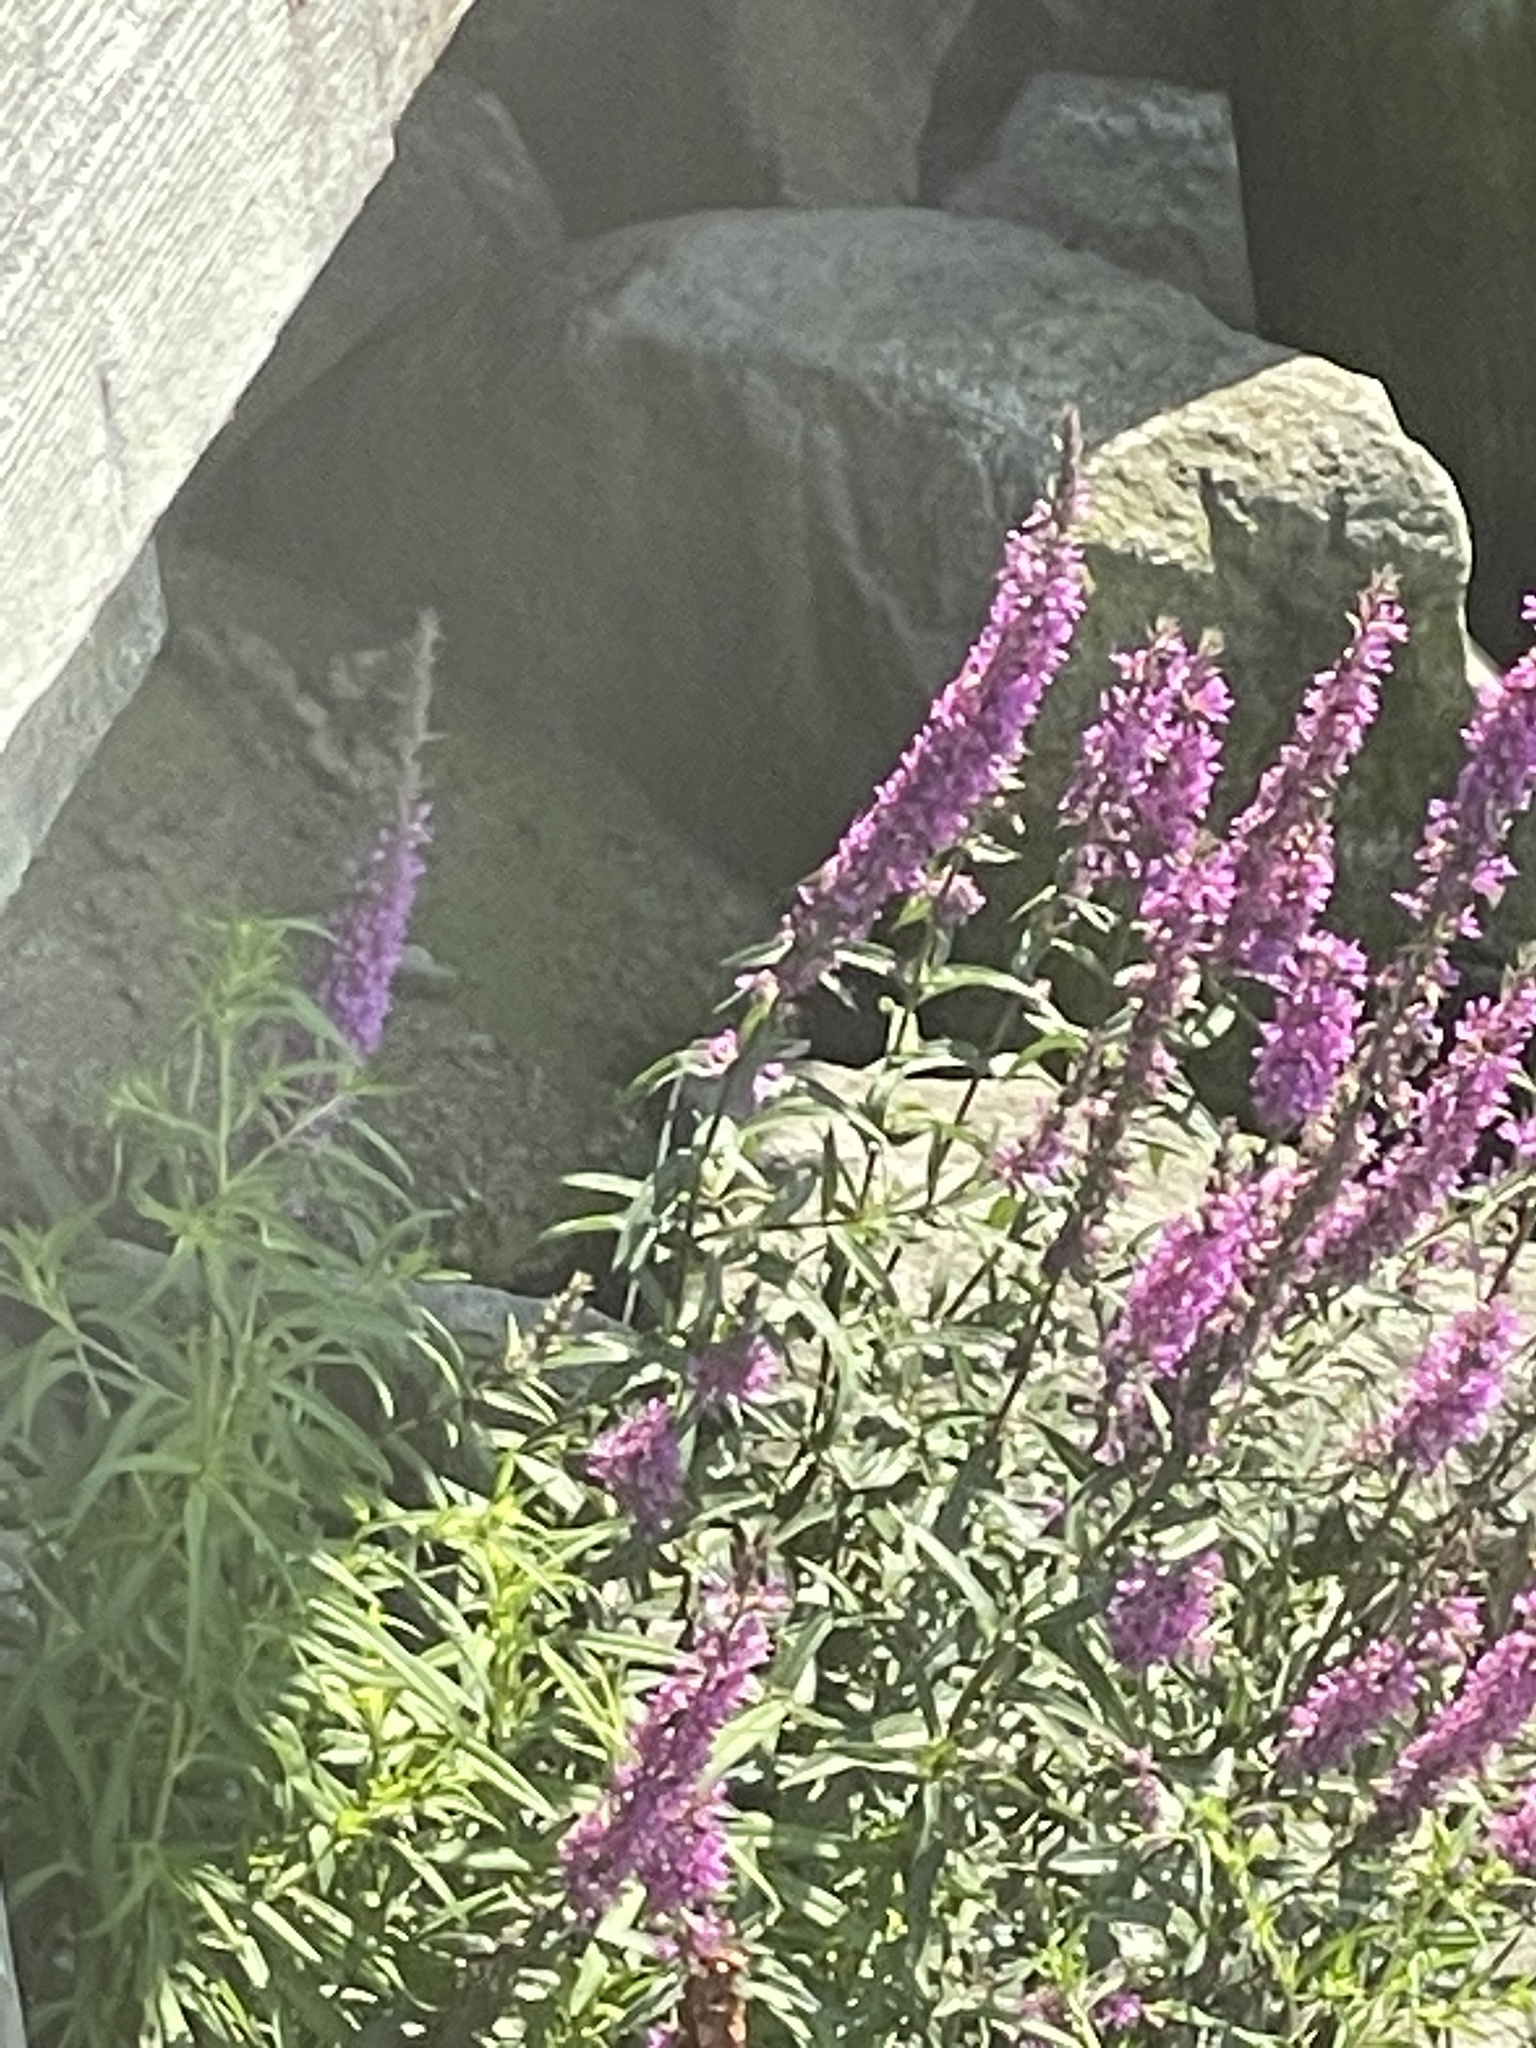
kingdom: Plantae
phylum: Tracheophyta
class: Magnoliopsida
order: Myrtales
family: Lythraceae
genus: Lythrum
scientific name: Lythrum salicaria
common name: Purple loosestrife
